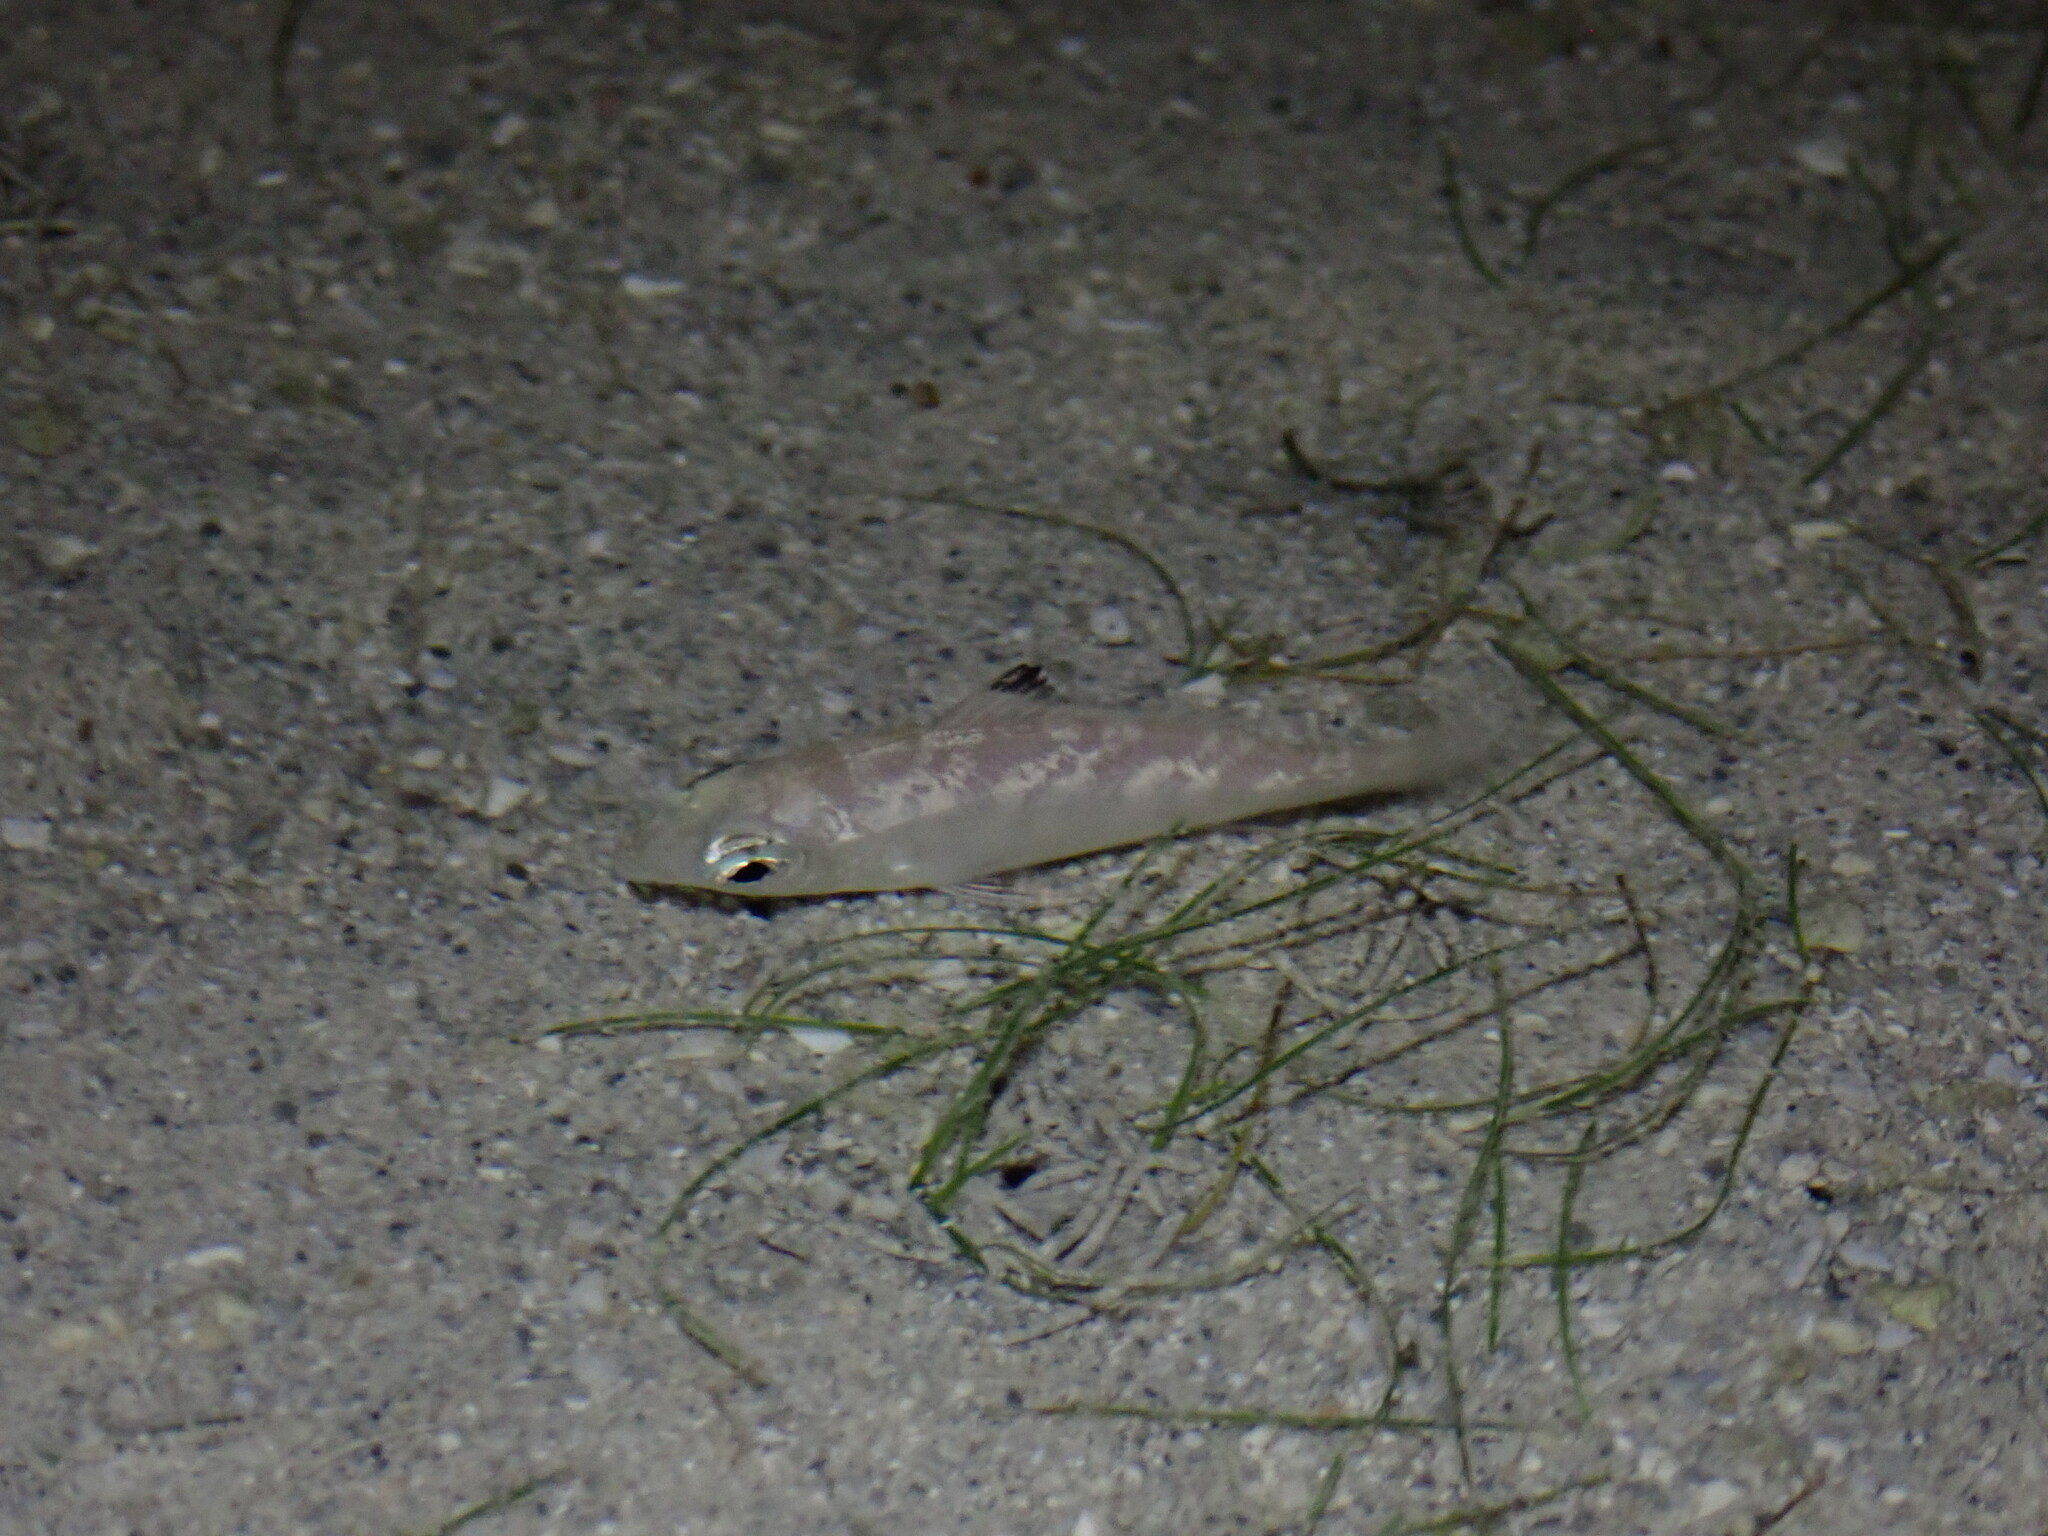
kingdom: Animalia
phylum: Chordata
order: Perciformes
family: Gerreidae
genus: Gerres
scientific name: Gerres oyena
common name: Common silver-biddy
